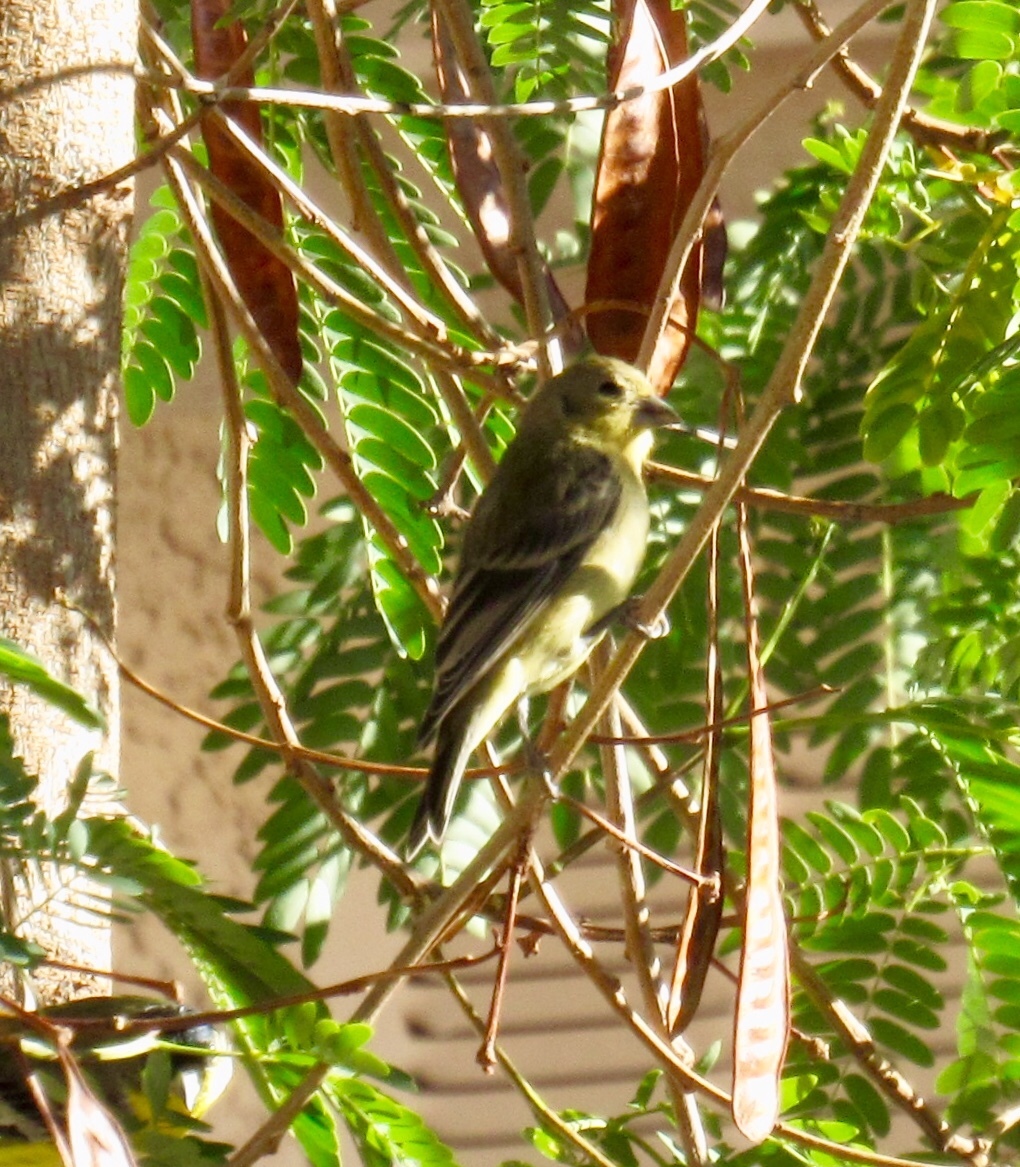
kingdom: Animalia
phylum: Chordata
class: Aves
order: Passeriformes
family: Fringillidae
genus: Spinus
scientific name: Spinus psaltria
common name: Lesser goldfinch
